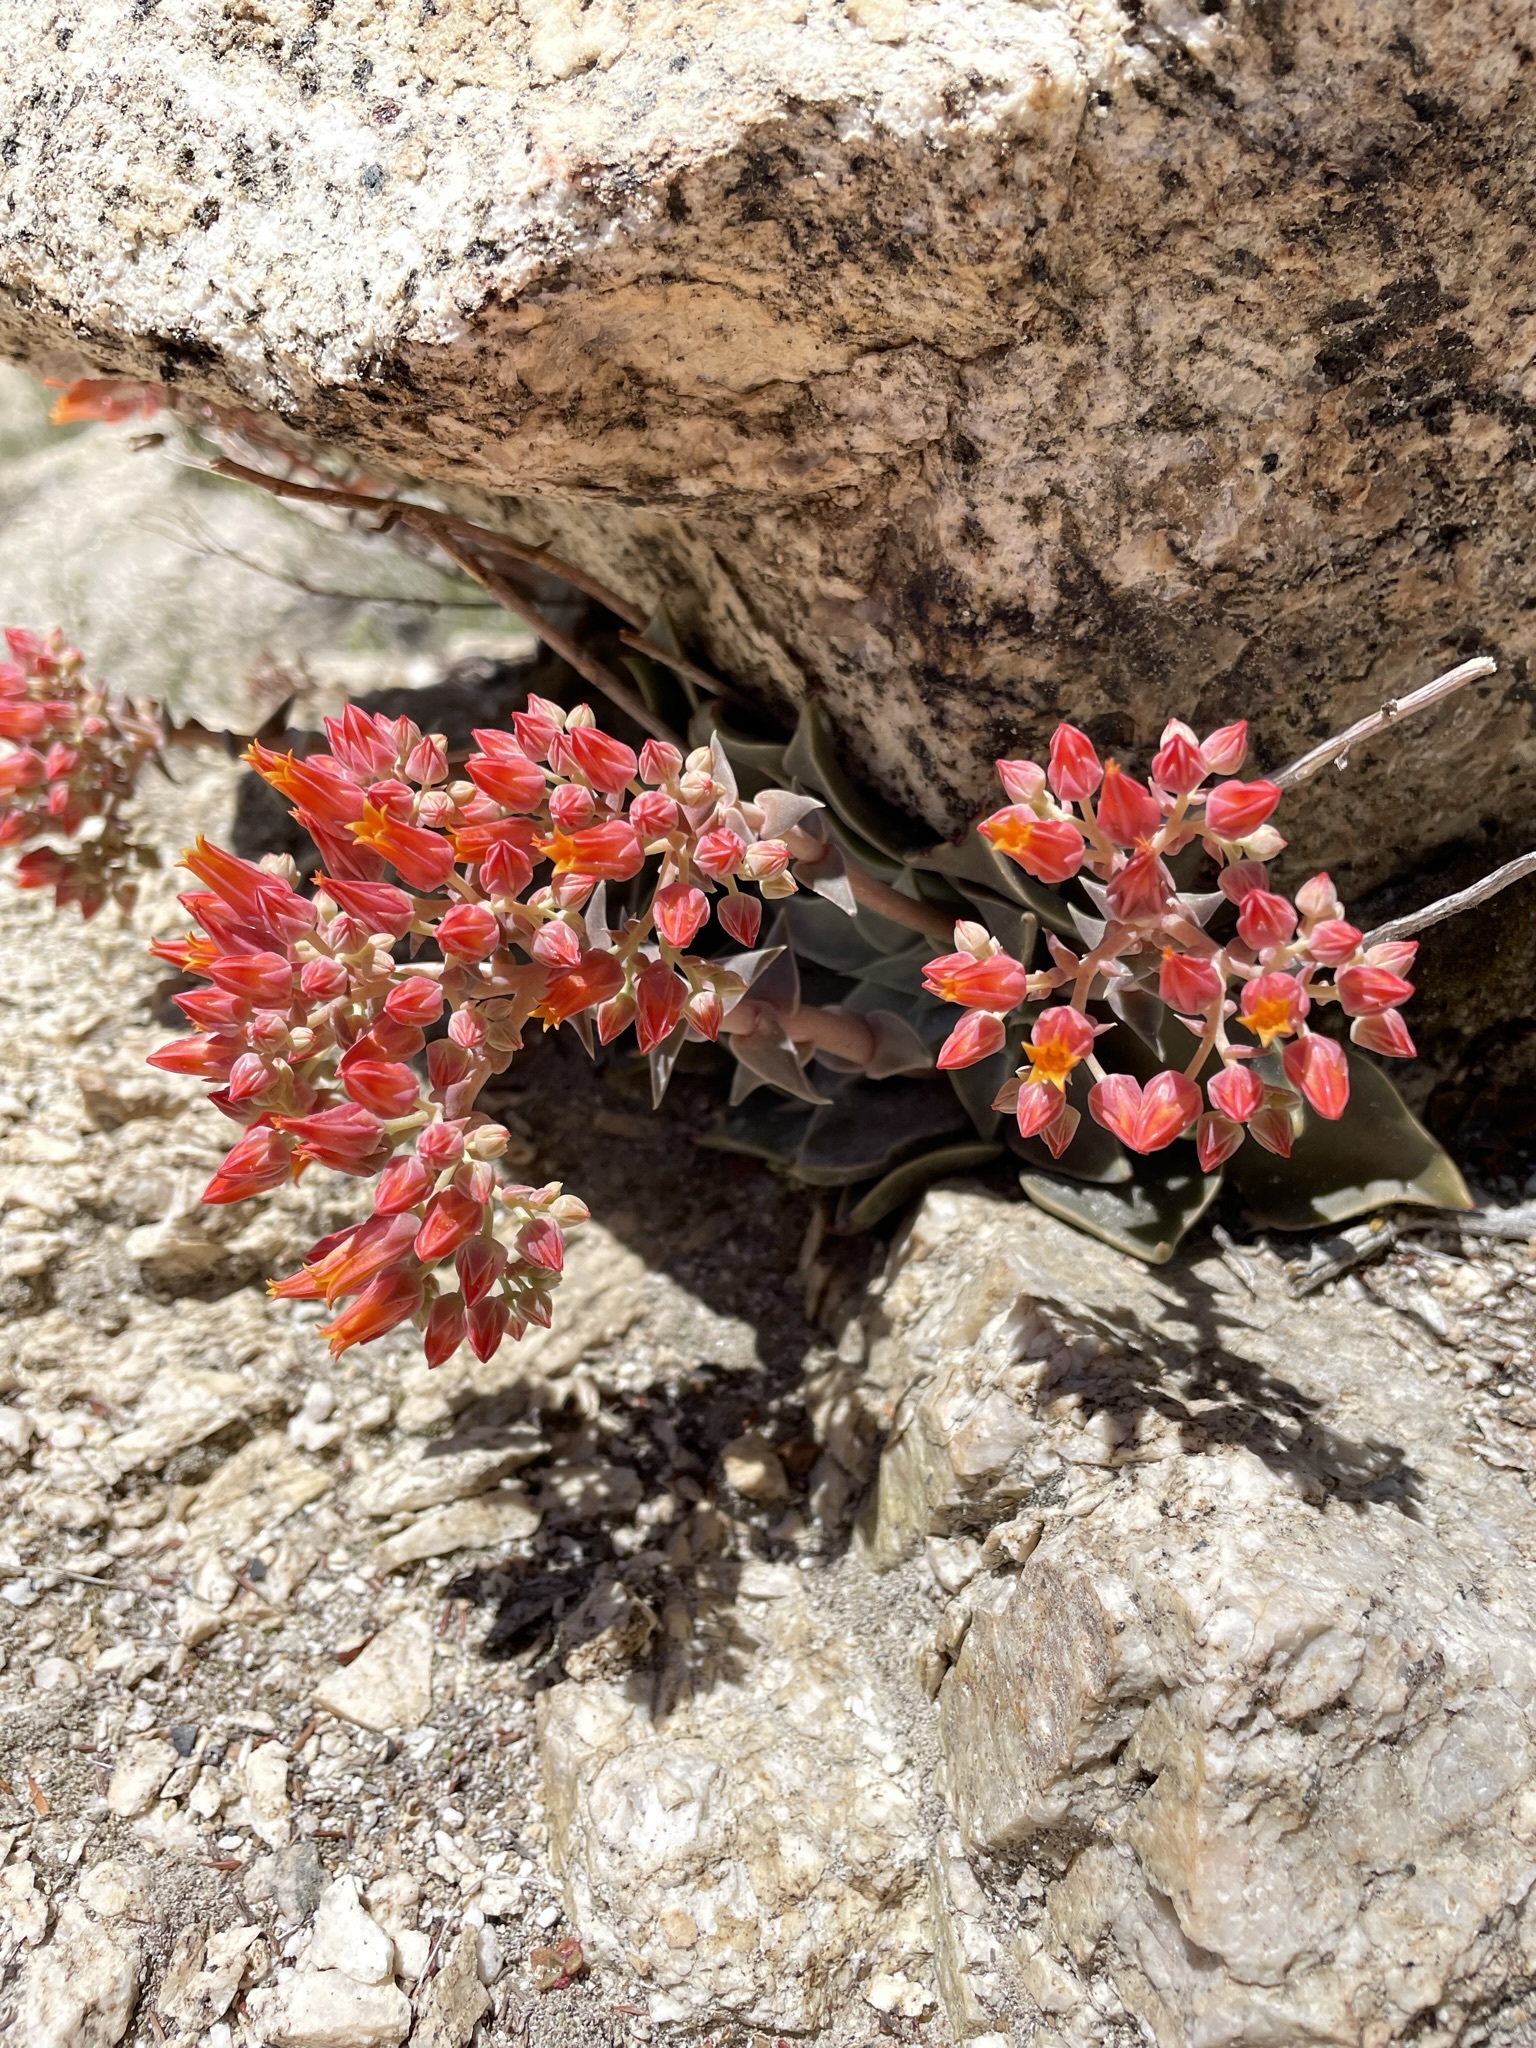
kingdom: Plantae
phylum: Tracheophyta
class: Magnoliopsida
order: Saxifragales
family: Crassulaceae
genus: Dudleya
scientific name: Dudleya cymosa
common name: Canyon dudleya
